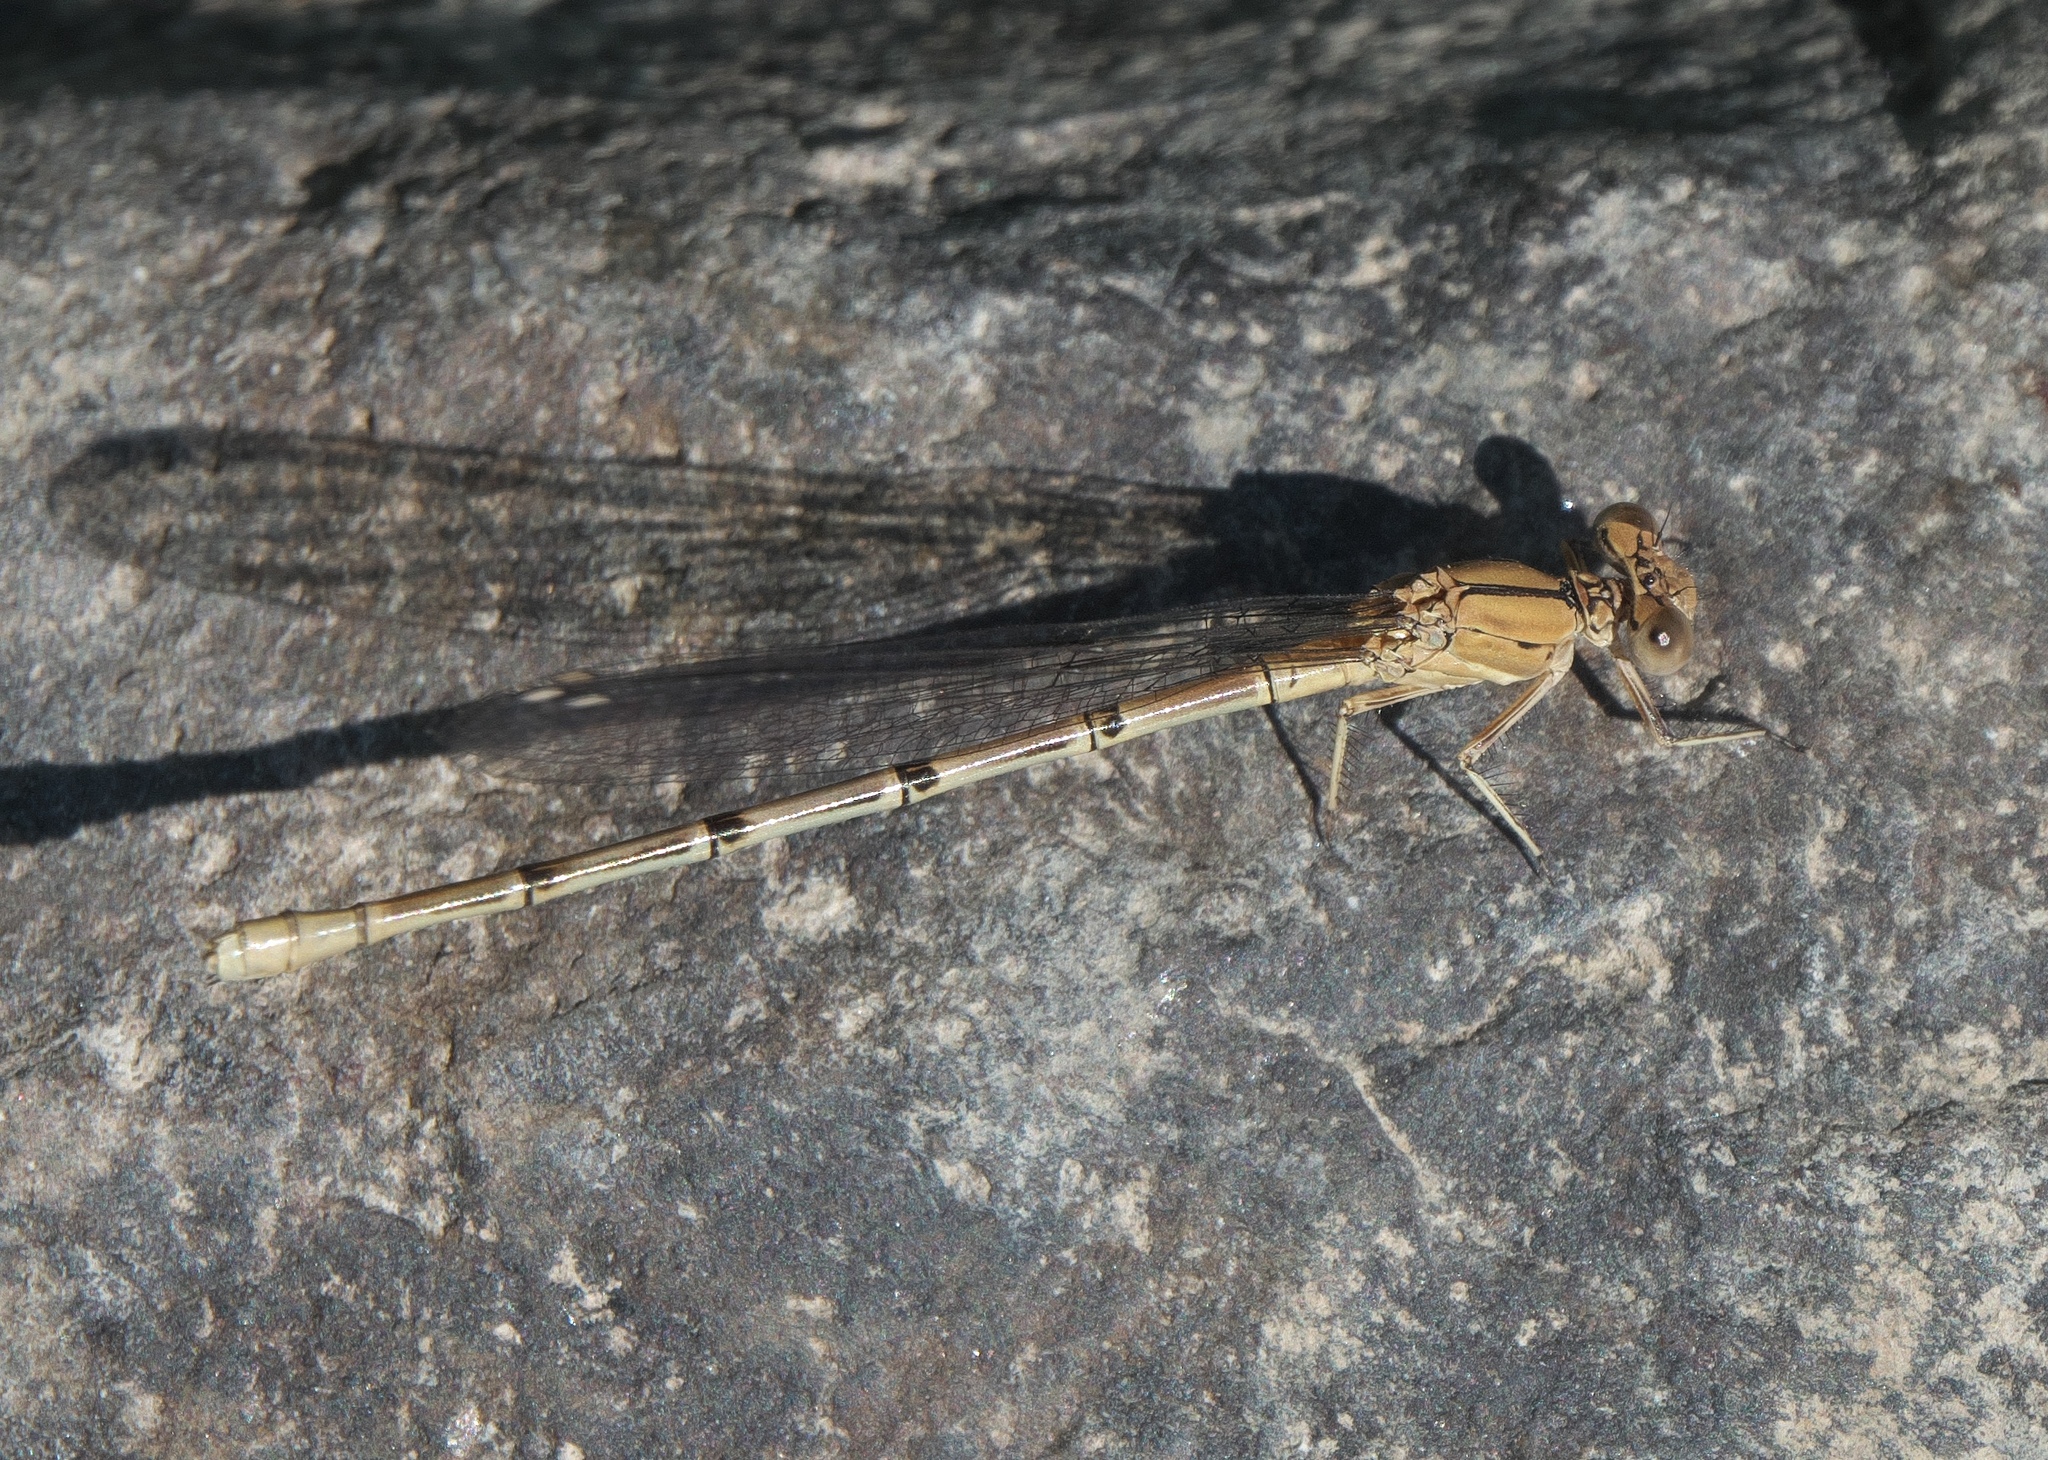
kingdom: Animalia
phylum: Arthropoda
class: Insecta
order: Odonata
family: Coenagrionidae
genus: Argia
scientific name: Argia emma
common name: Emma's dancer
